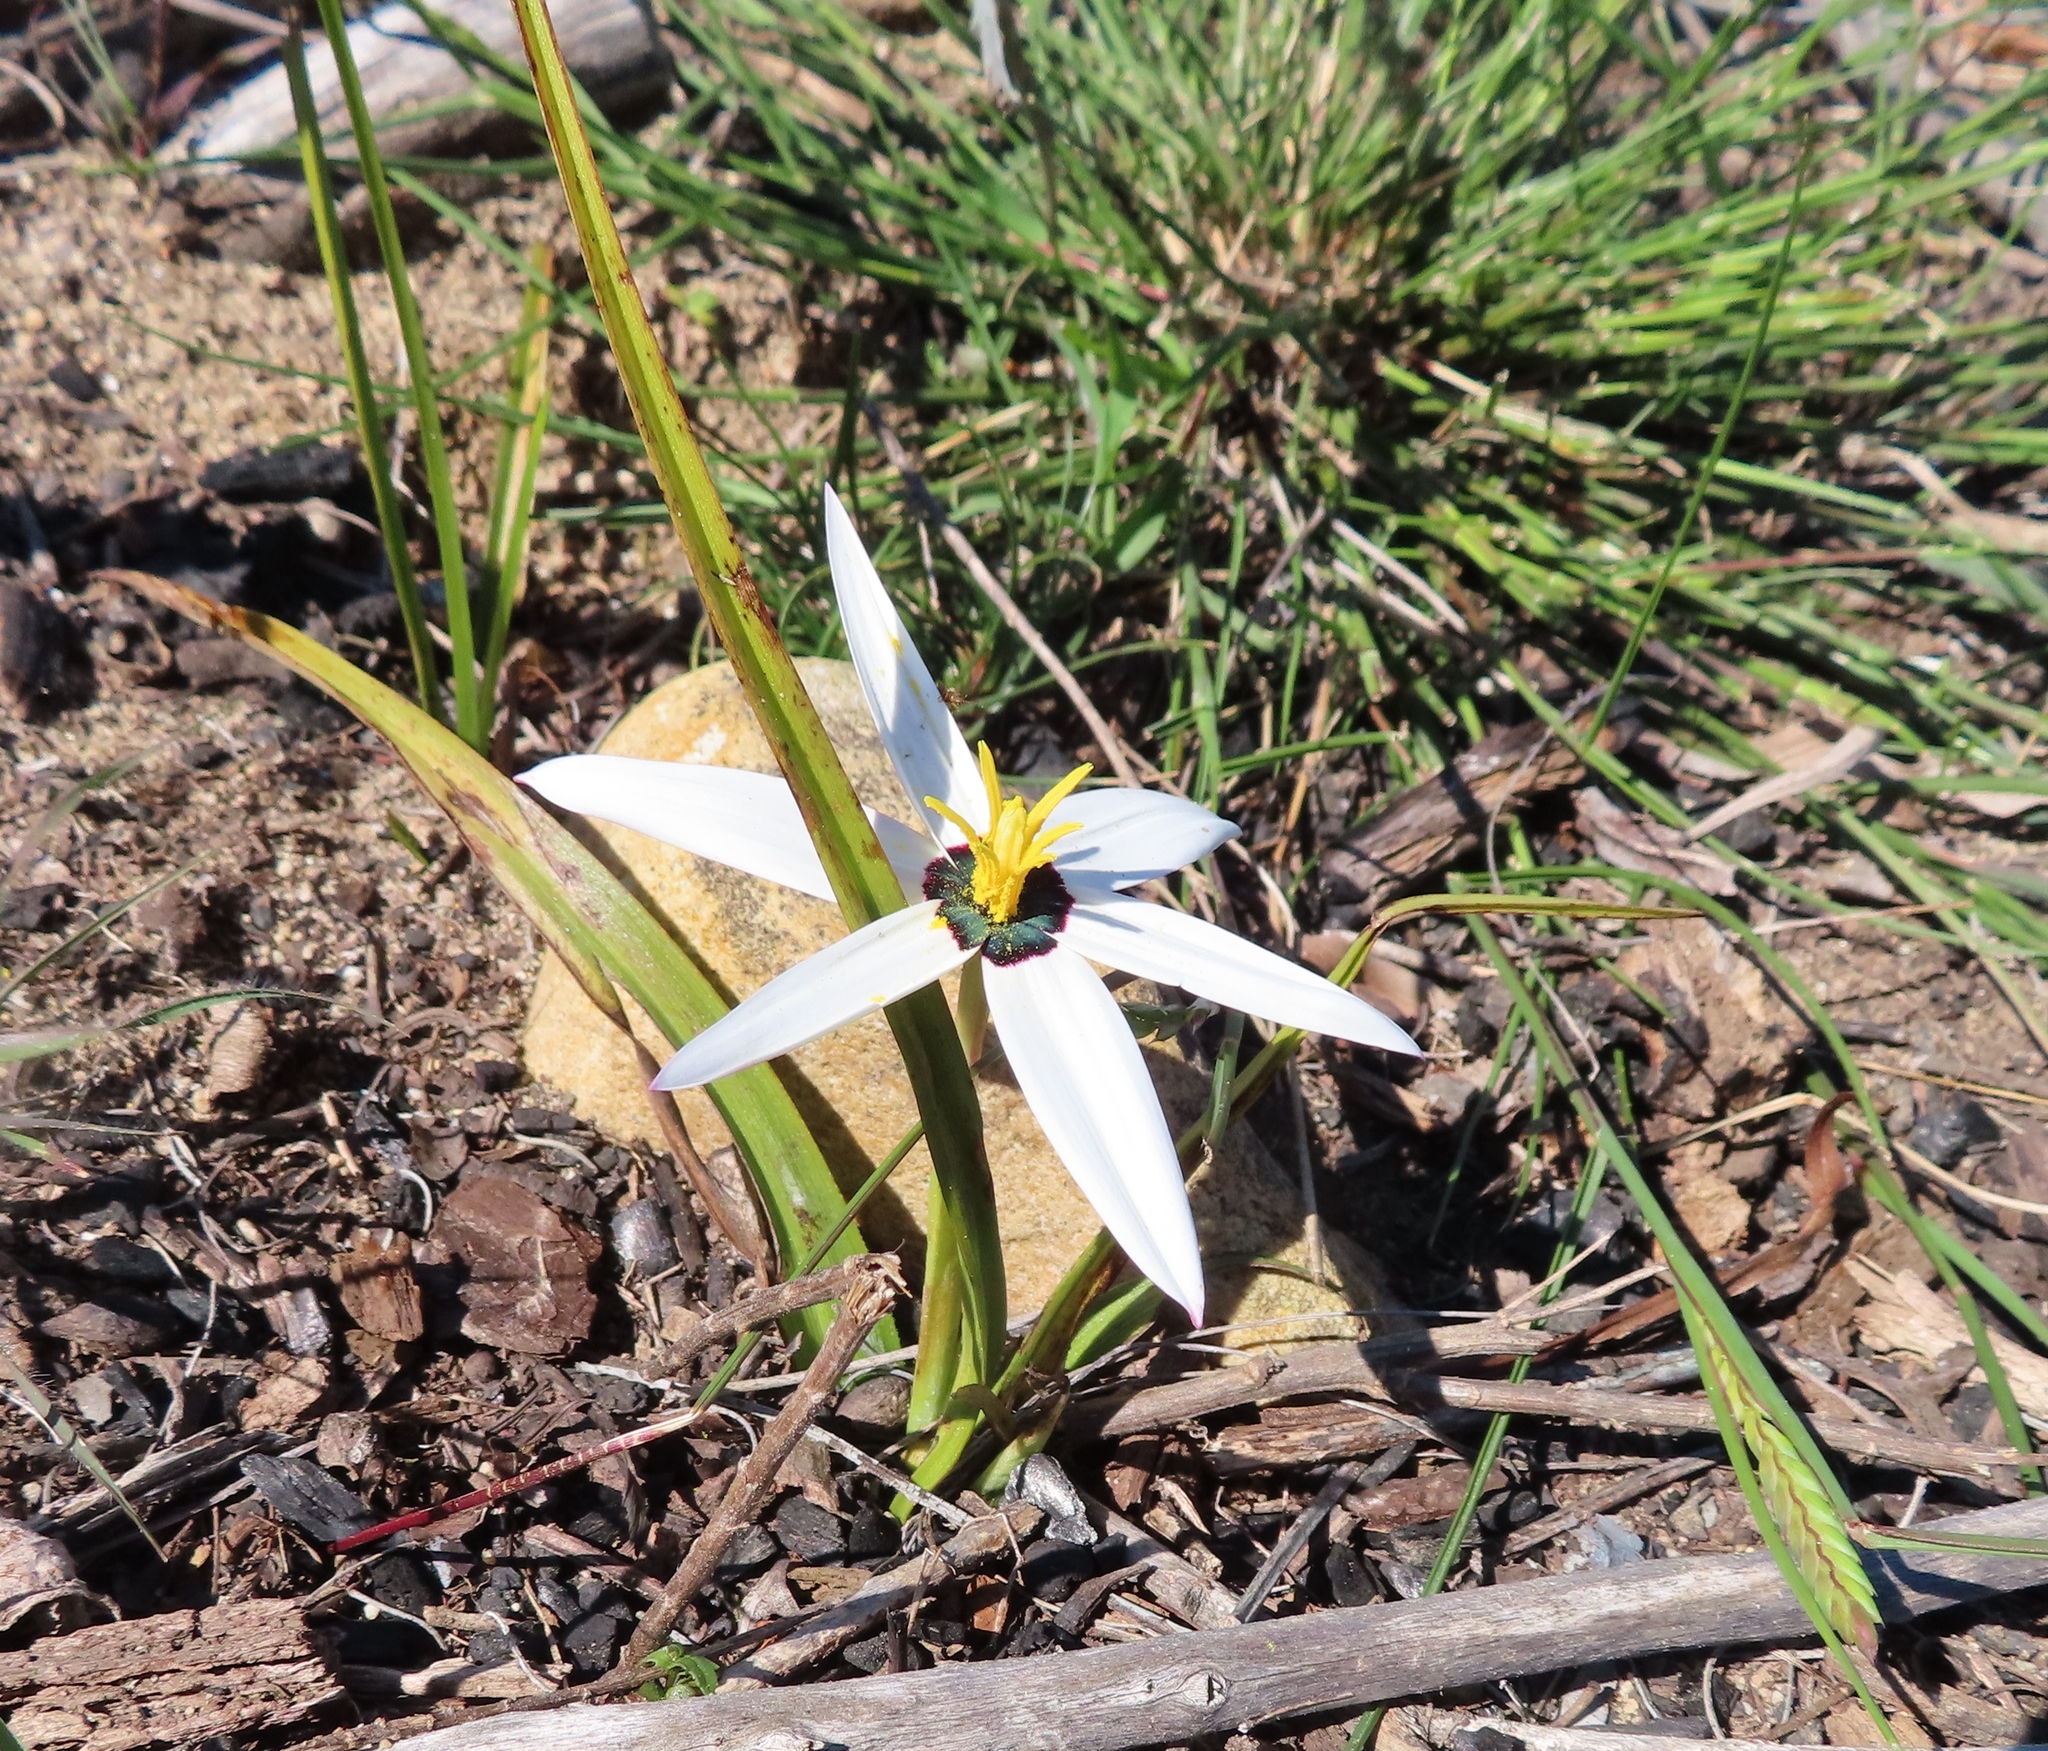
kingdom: Plantae
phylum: Tracheophyta
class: Liliopsida
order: Asparagales
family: Hypoxidaceae
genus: Pauridia
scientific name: Pauridia capensis
